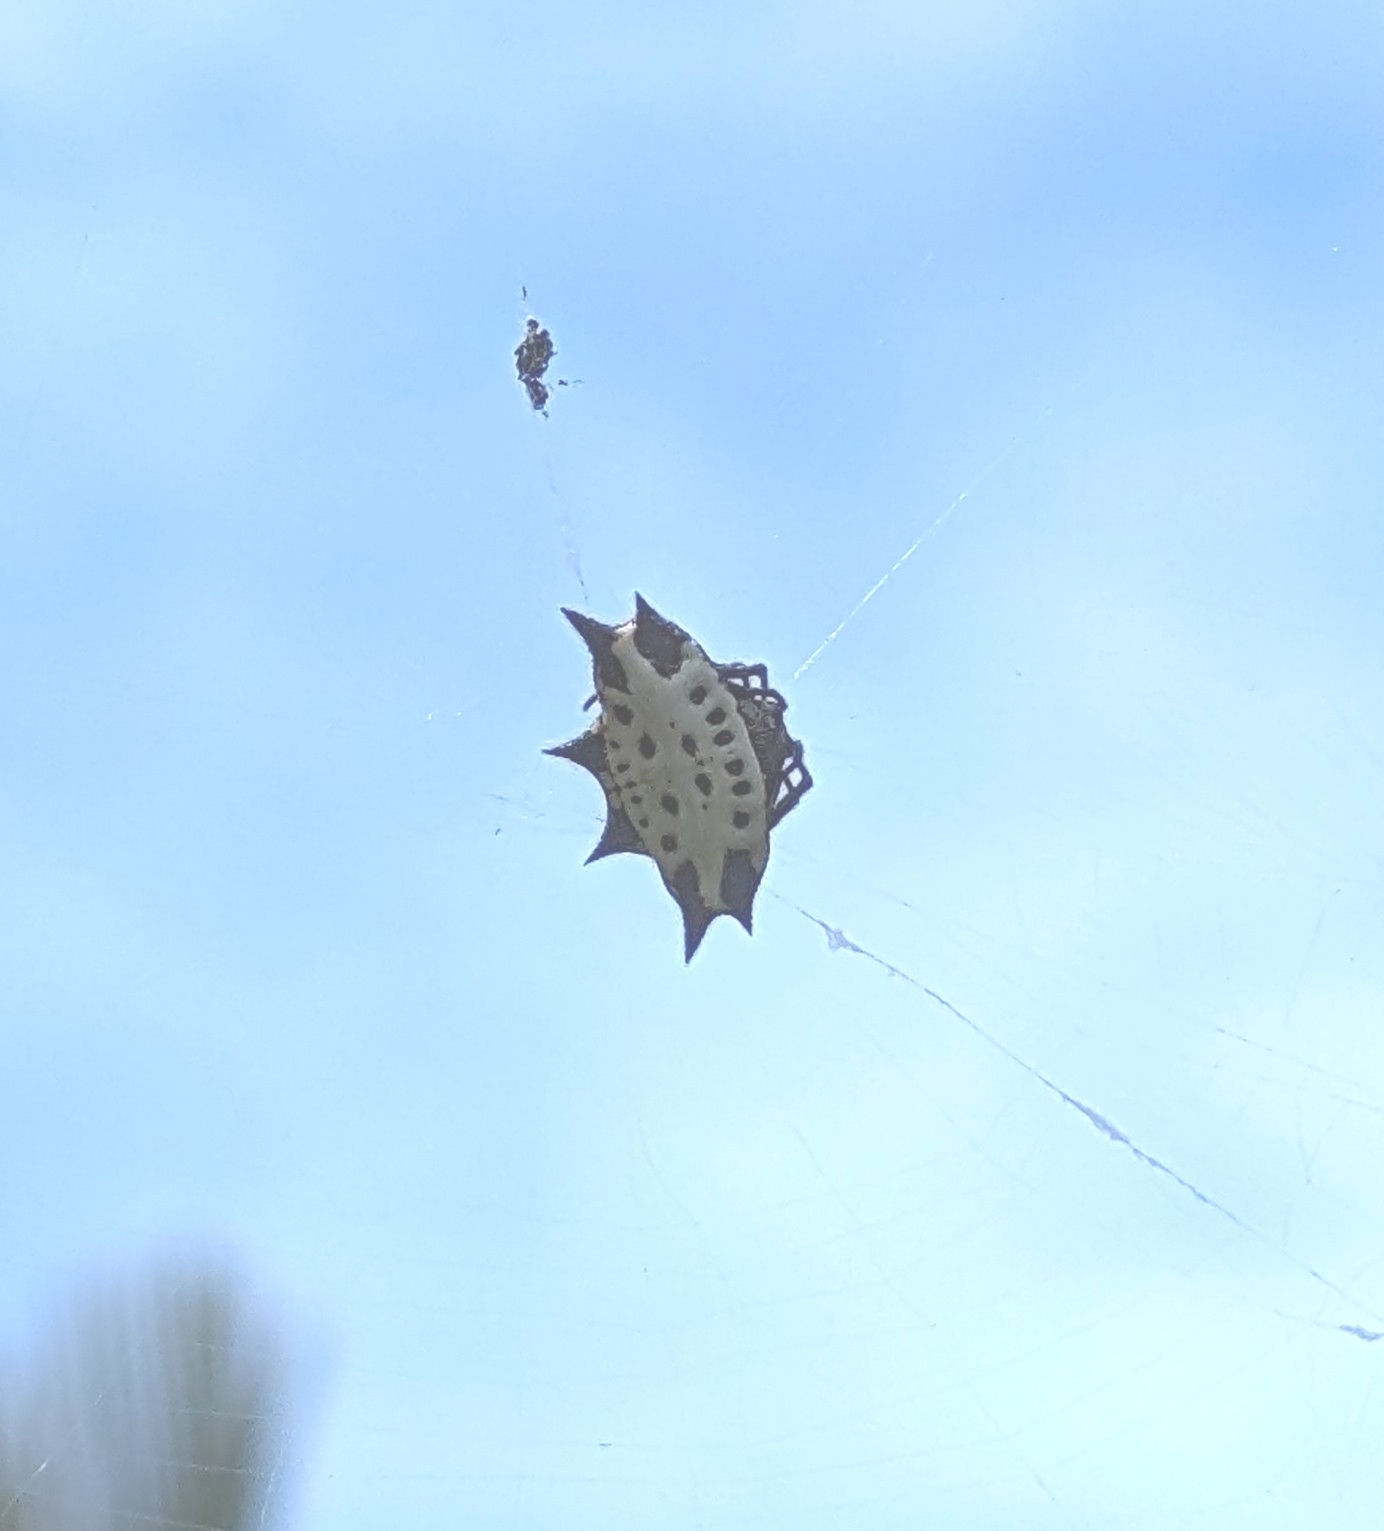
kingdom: Animalia
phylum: Arthropoda
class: Arachnida
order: Araneae
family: Araneidae
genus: Gasteracantha
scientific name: Gasteracantha cancriformis
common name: Orb weavers
